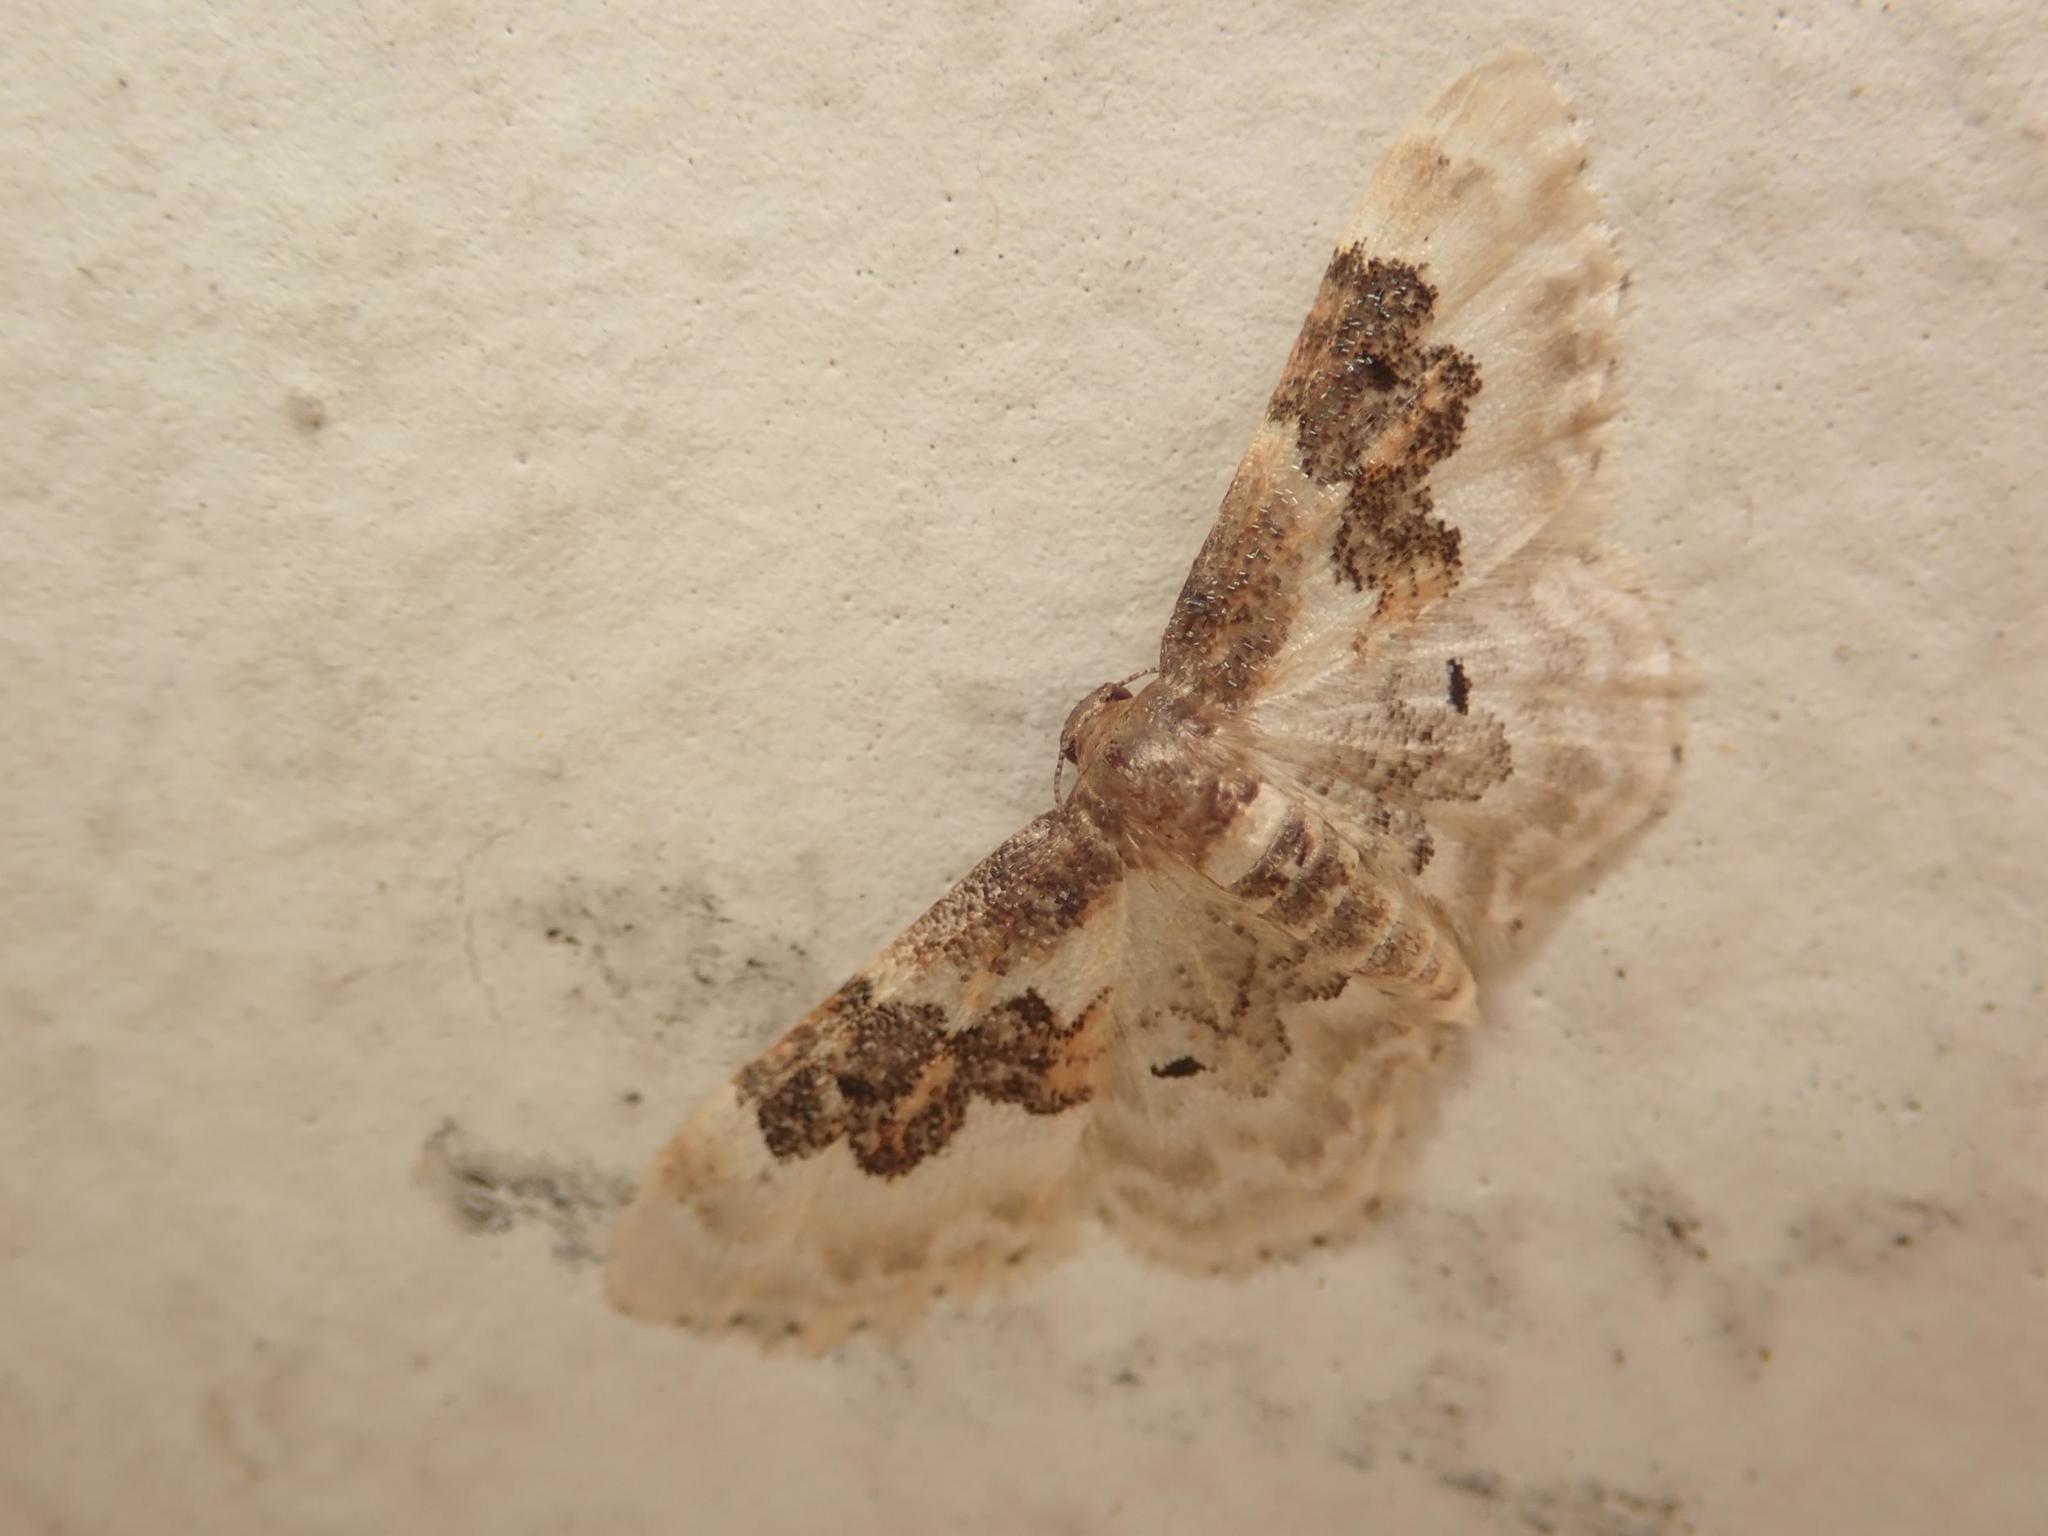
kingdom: Animalia
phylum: Arthropoda
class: Insecta
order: Lepidoptera
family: Geometridae
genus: Idaea
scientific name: Idaea rusticata
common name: Least carpet
